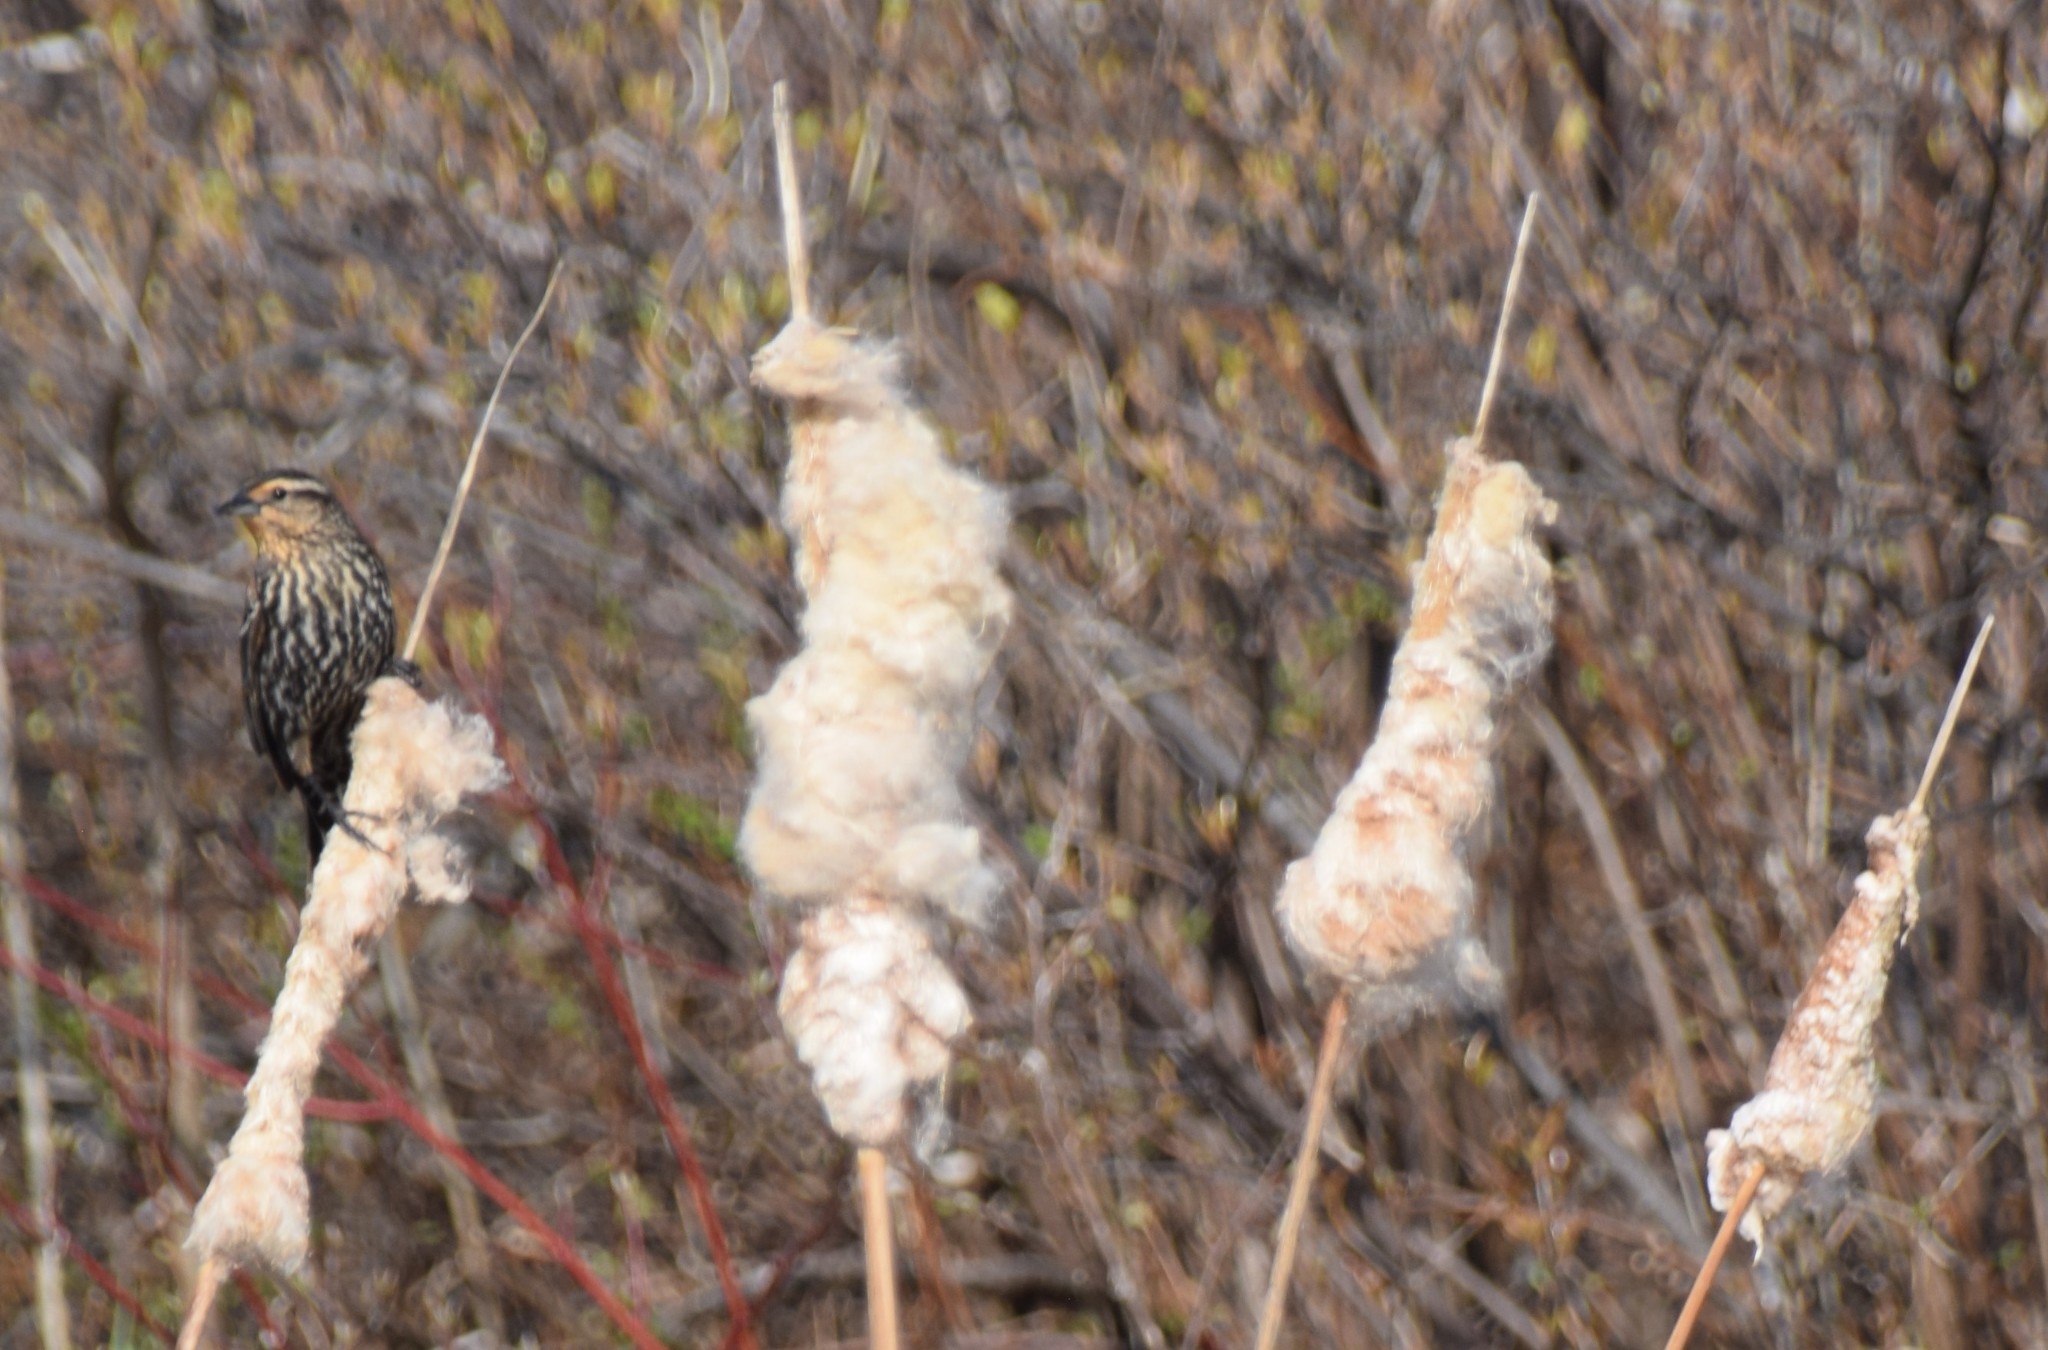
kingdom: Animalia
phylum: Chordata
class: Aves
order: Passeriformes
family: Icteridae
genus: Agelaius
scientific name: Agelaius phoeniceus
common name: Red-winged blackbird
